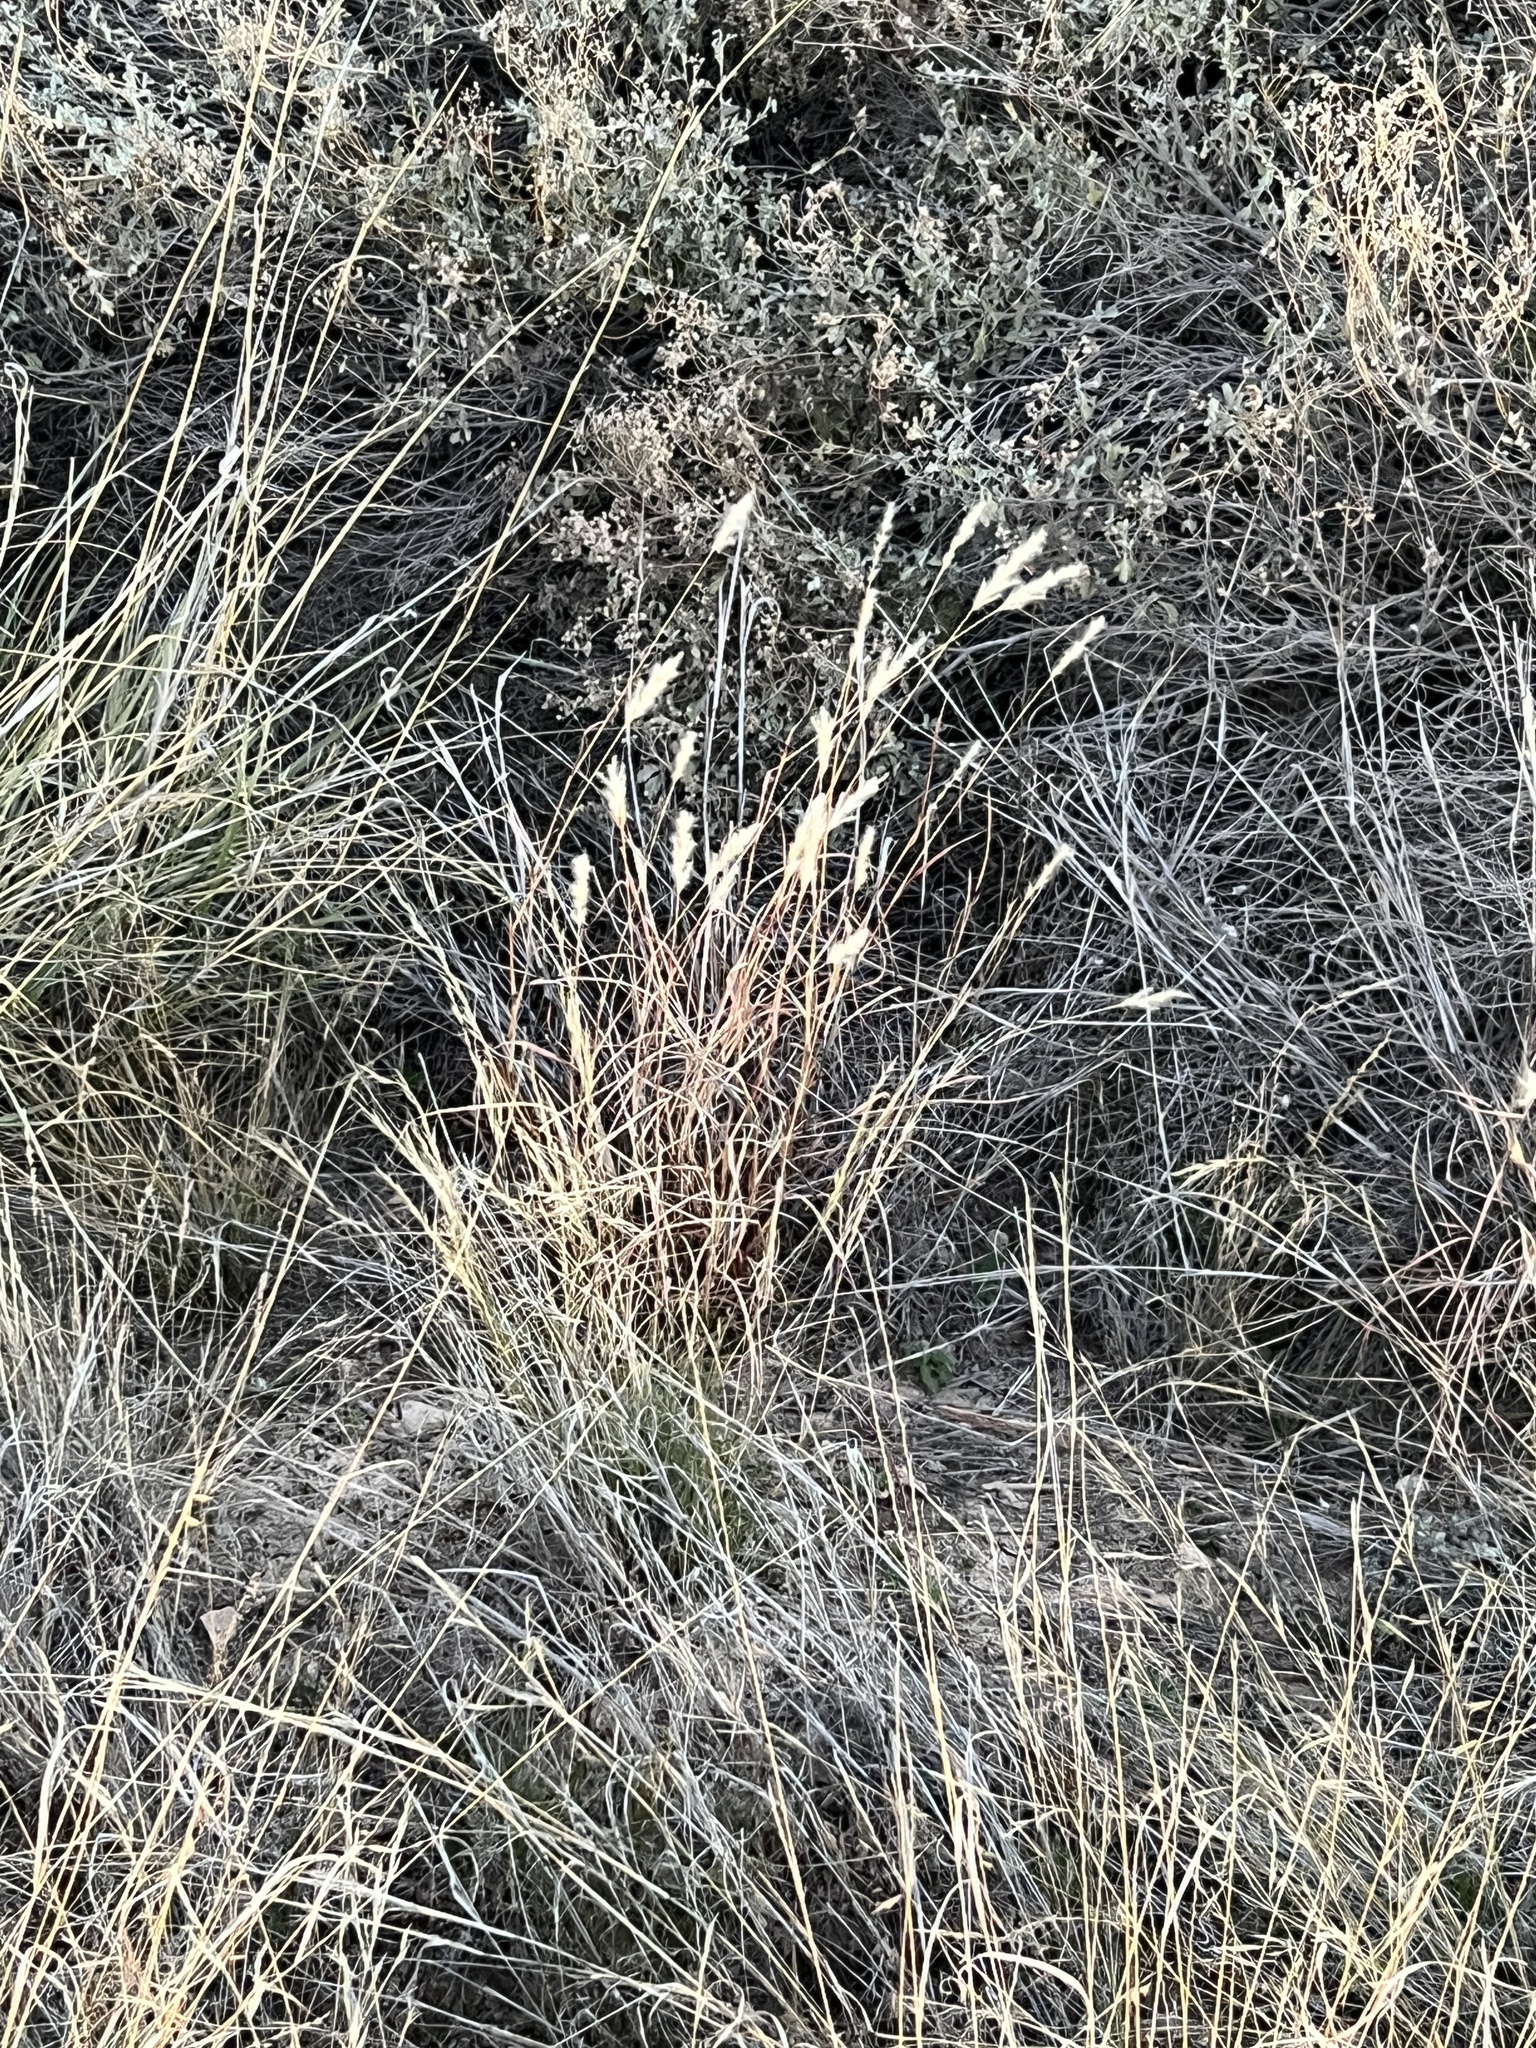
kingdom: Plantae
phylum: Tracheophyta
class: Liliopsida
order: Poales
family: Poaceae
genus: Bothriochloa
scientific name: Bothriochloa barbinodis
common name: Cane bluestem
